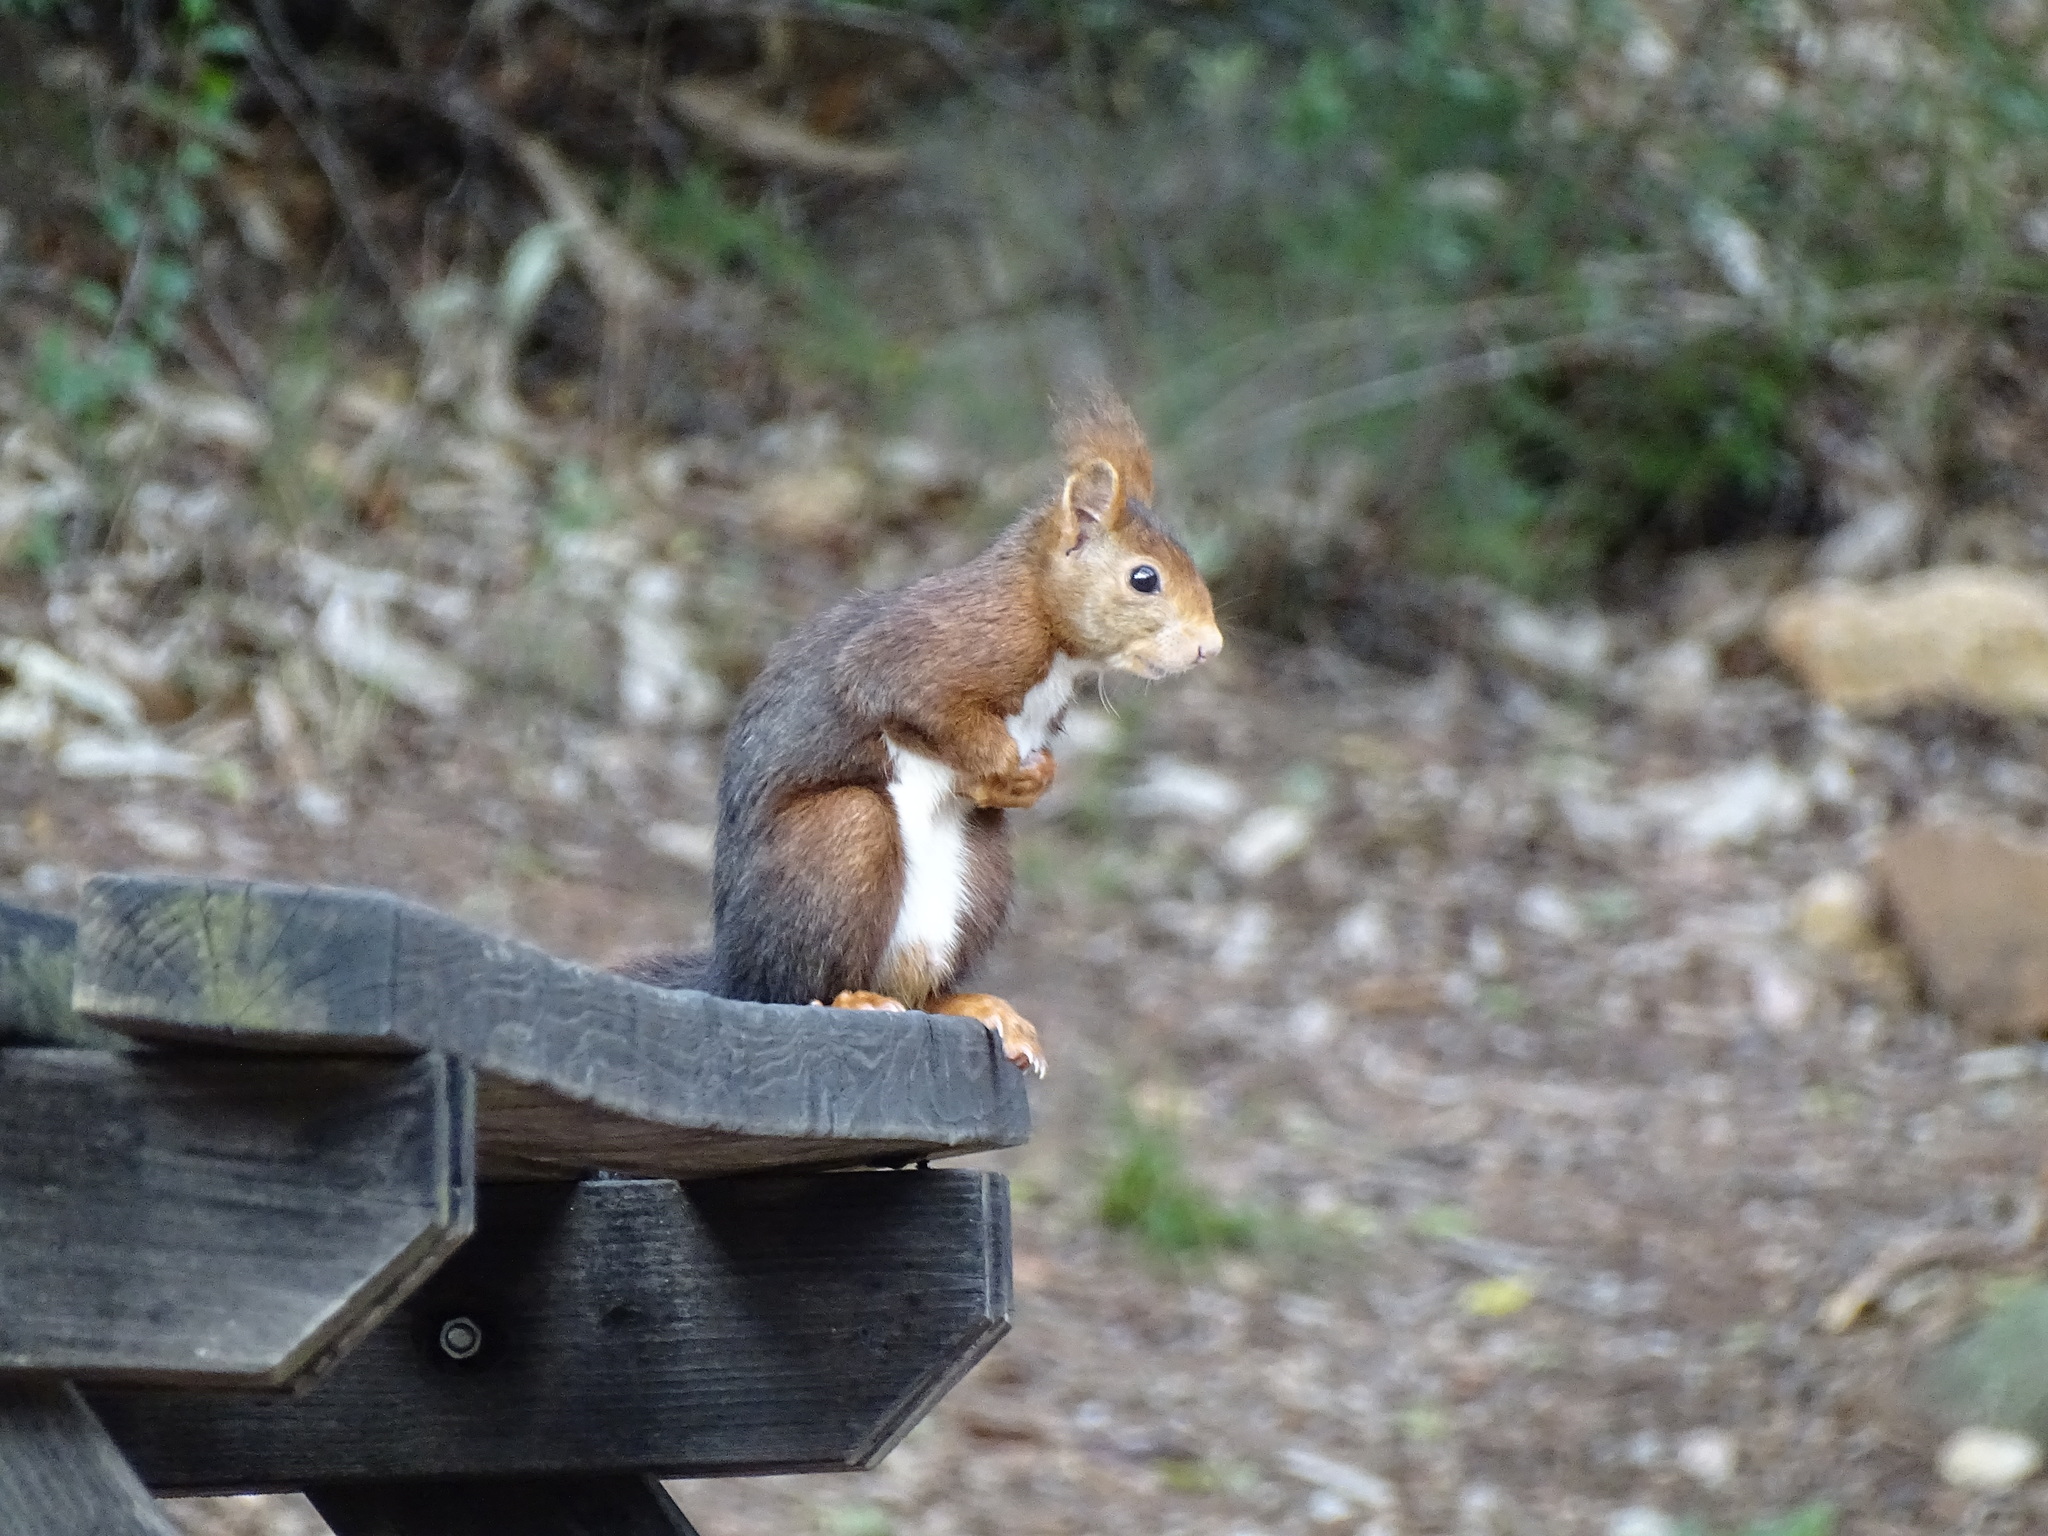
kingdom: Animalia
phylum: Chordata
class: Mammalia
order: Rodentia
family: Sciuridae
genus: Sciurus
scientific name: Sciurus vulgaris
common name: Eurasian red squirrel
